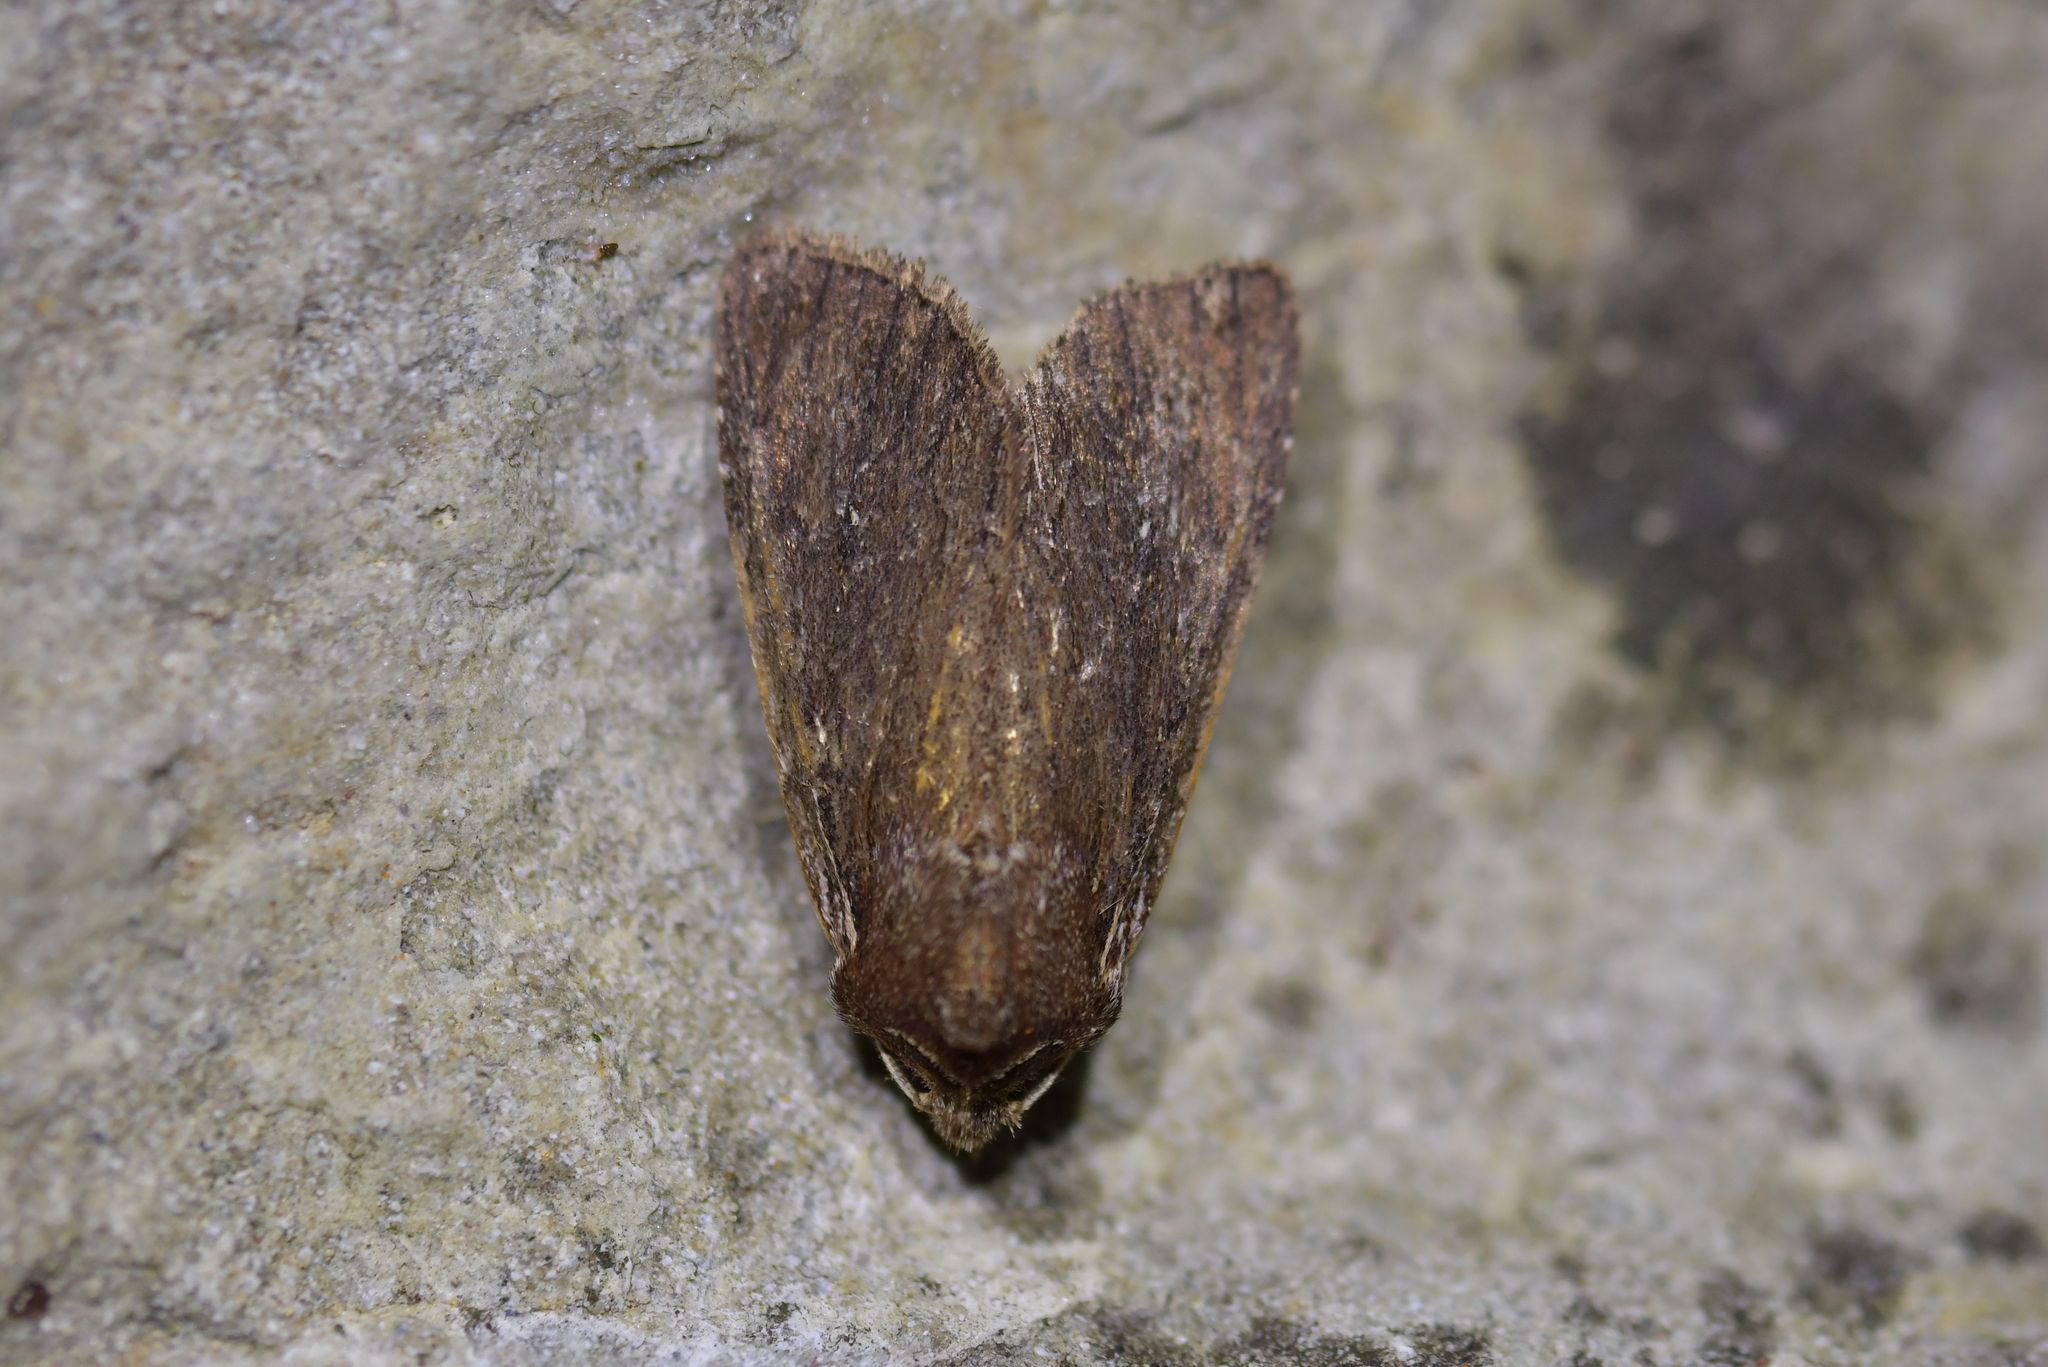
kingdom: Animalia
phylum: Arthropoda
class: Insecta
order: Lepidoptera
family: Noctuidae
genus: Ichneutica
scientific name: Ichneutica
